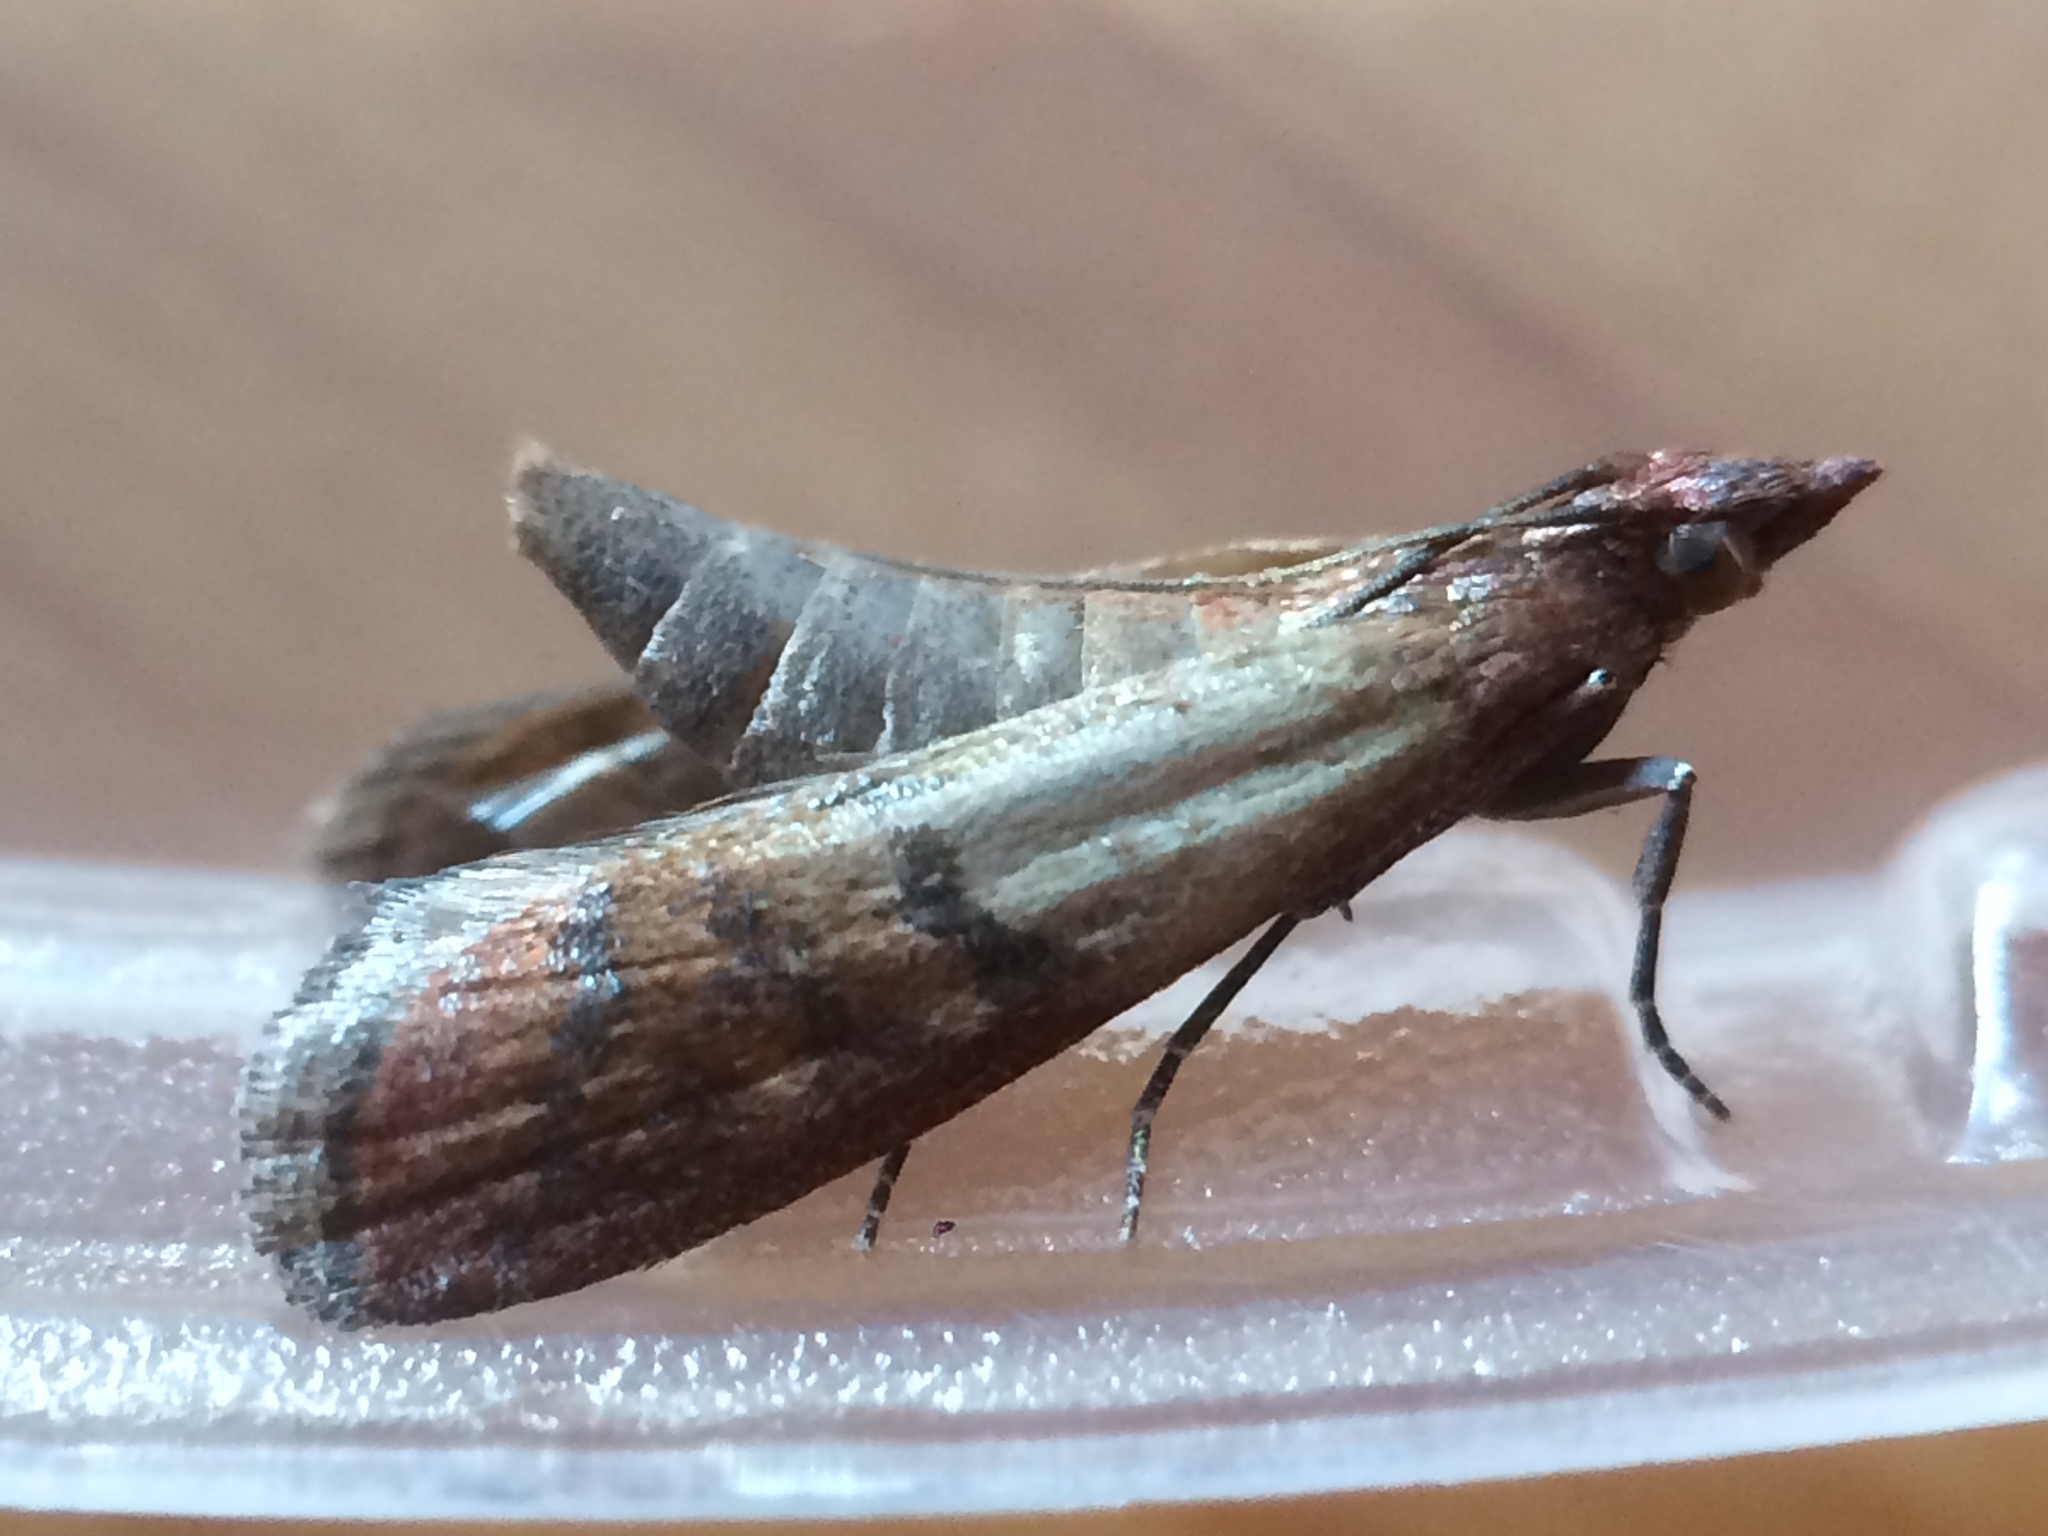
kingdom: Animalia
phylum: Arthropoda
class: Insecta
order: Lepidoptera
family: Pyralidae
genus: Plodia
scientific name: Plodia interpunctella
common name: Indian meal moth
